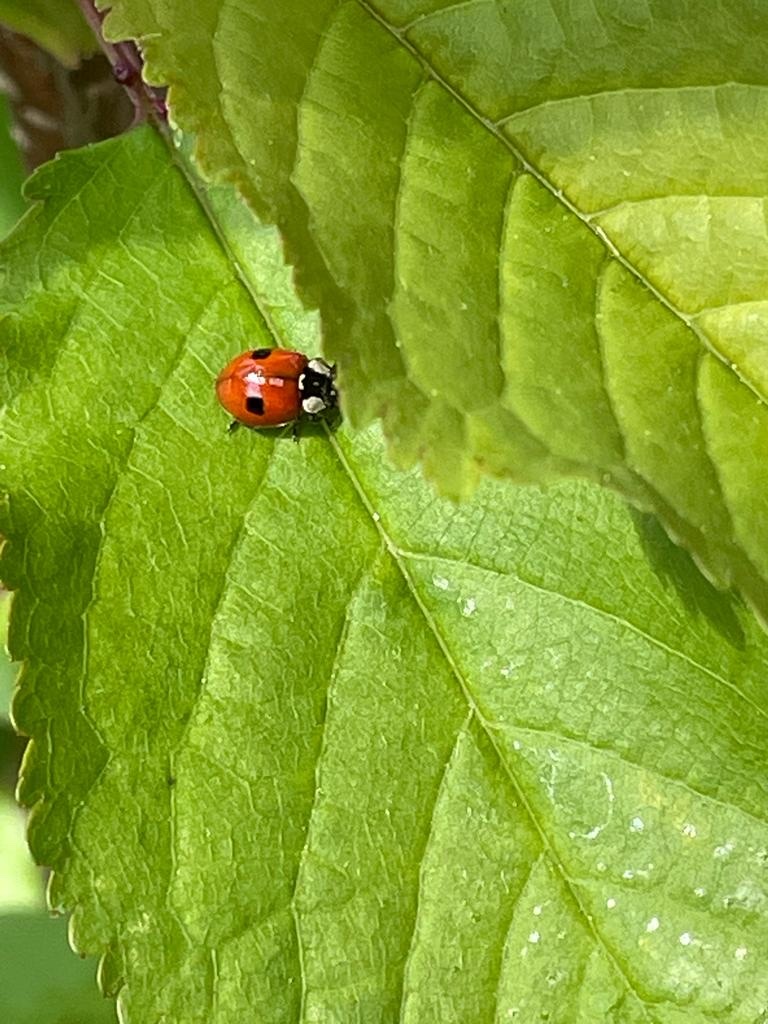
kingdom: Animalia
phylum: Arthropoda
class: Insecta
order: Coleoptera
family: Coccinellidae
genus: Adalia
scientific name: Adalia bipunctata
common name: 2-spot ladybird
